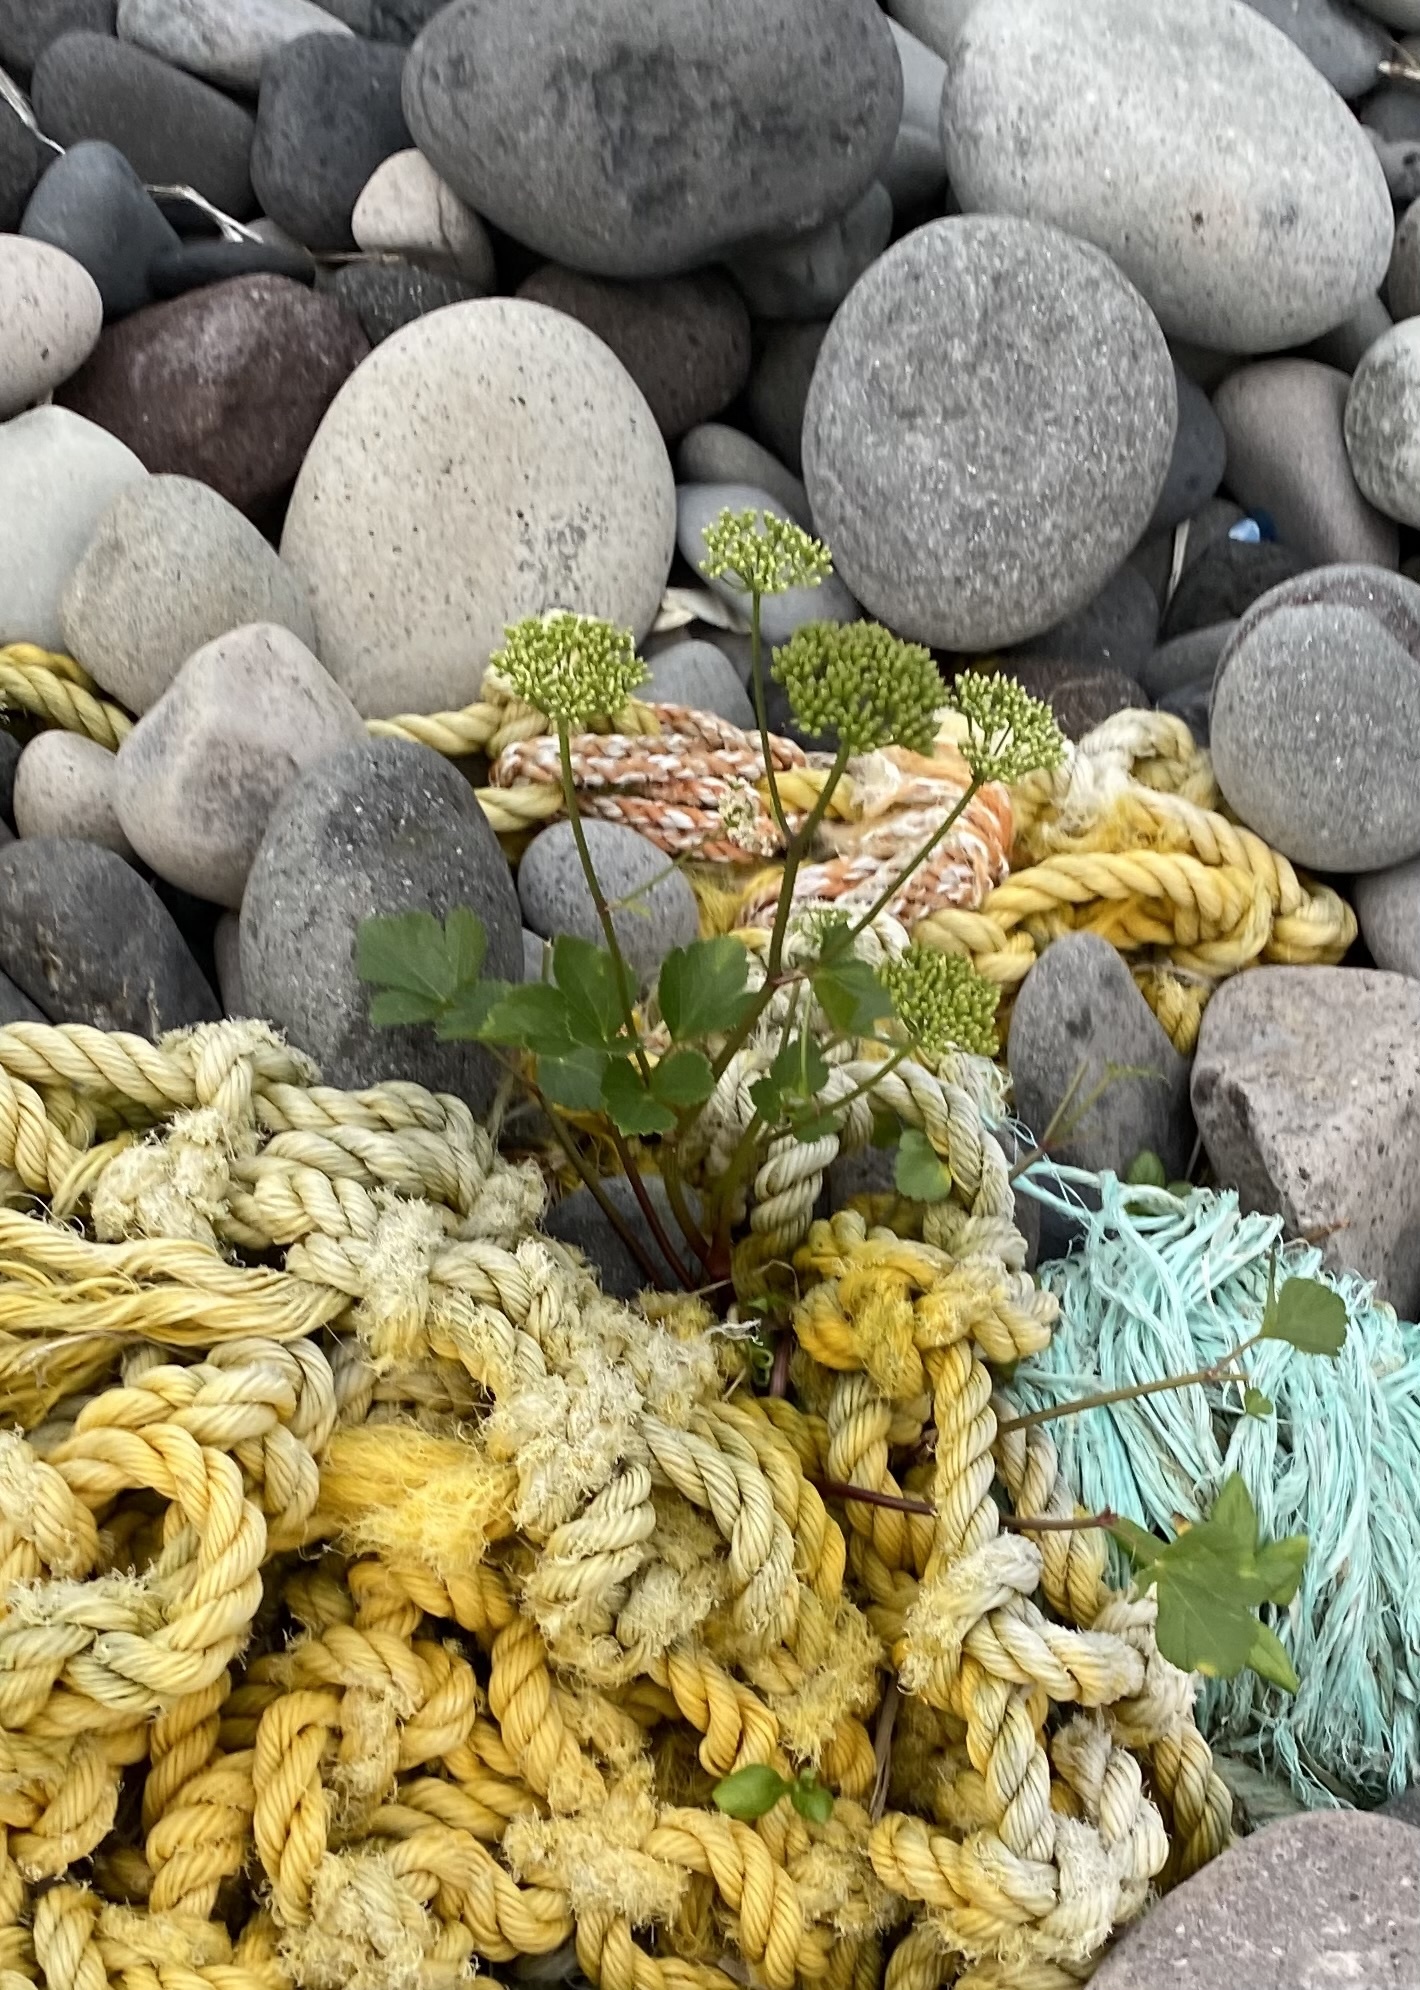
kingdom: Plantae
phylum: Tracheophyta
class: Magnoliopsida
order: Apiales
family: Apiaceae
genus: Ligusticum
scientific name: Ligusticum scothicum
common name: Beach lovage
